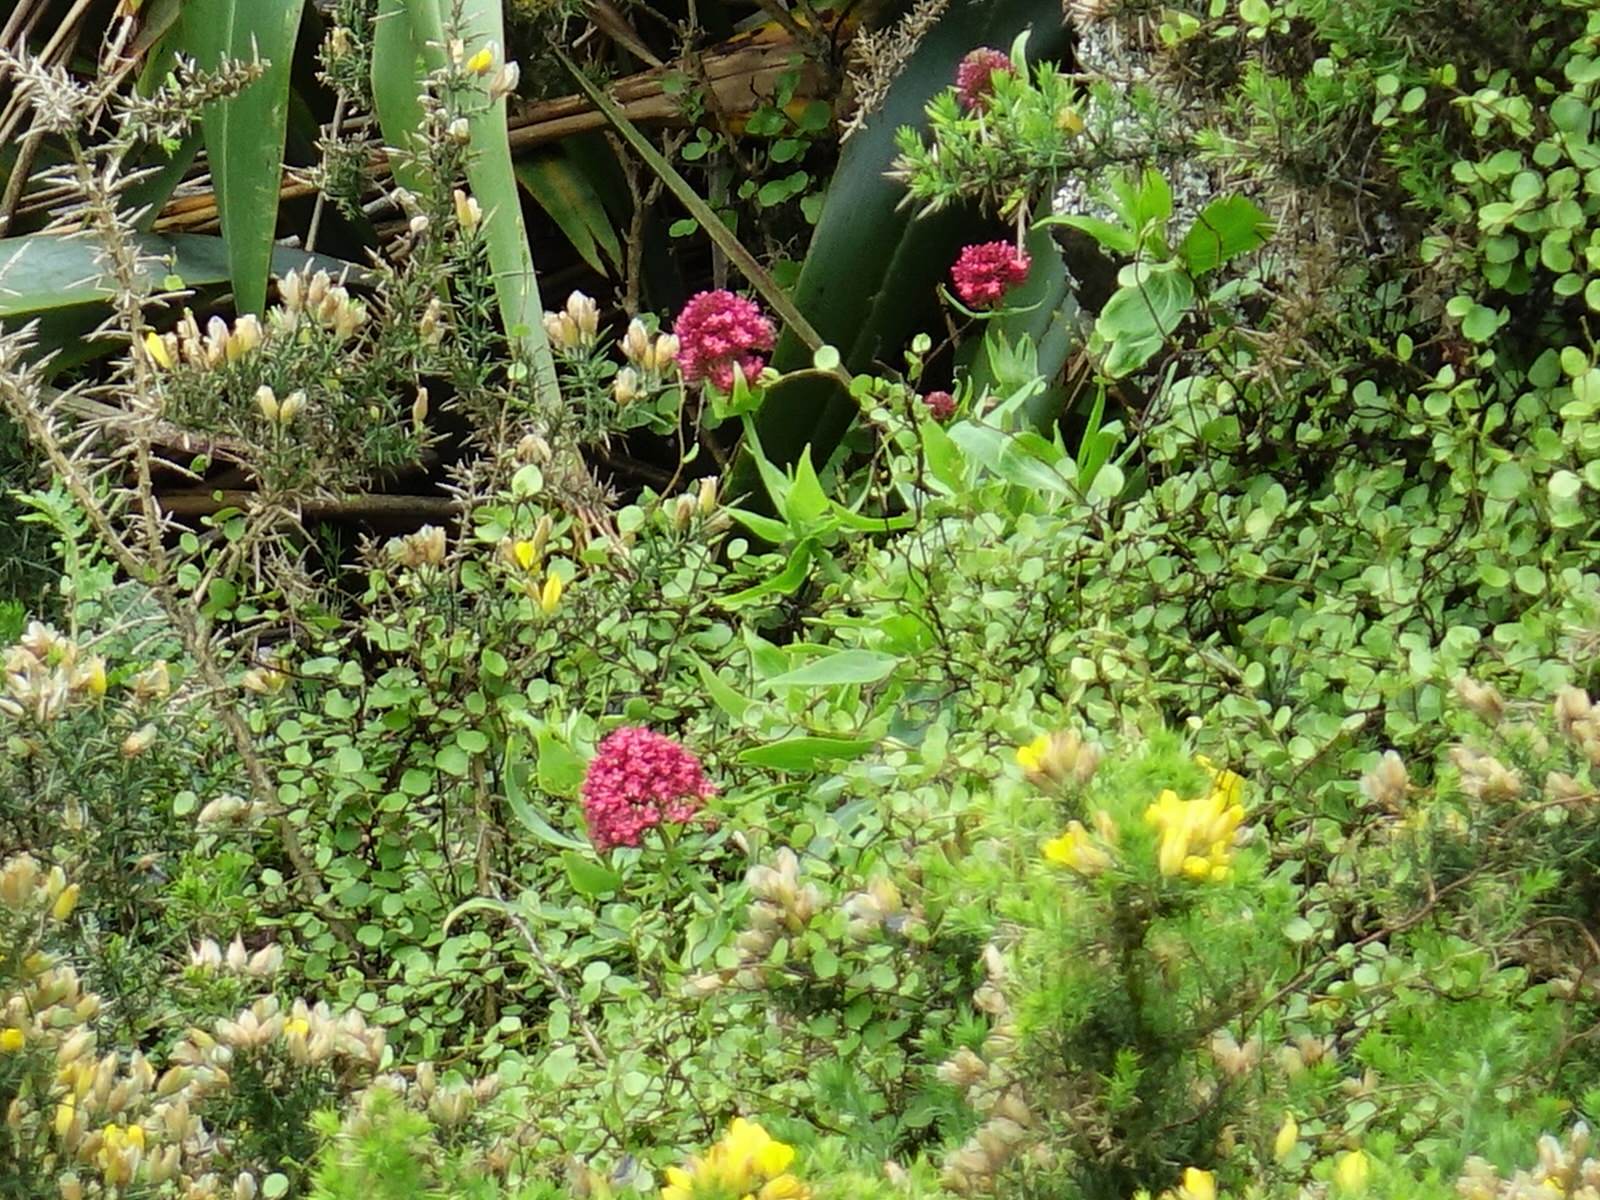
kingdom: Plantae
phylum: Tracheophyta
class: Magnoliopsida
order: Dipsacales
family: Caprifoliaceae
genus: Centranthus
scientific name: Centranthus ruber
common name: Red valerian
